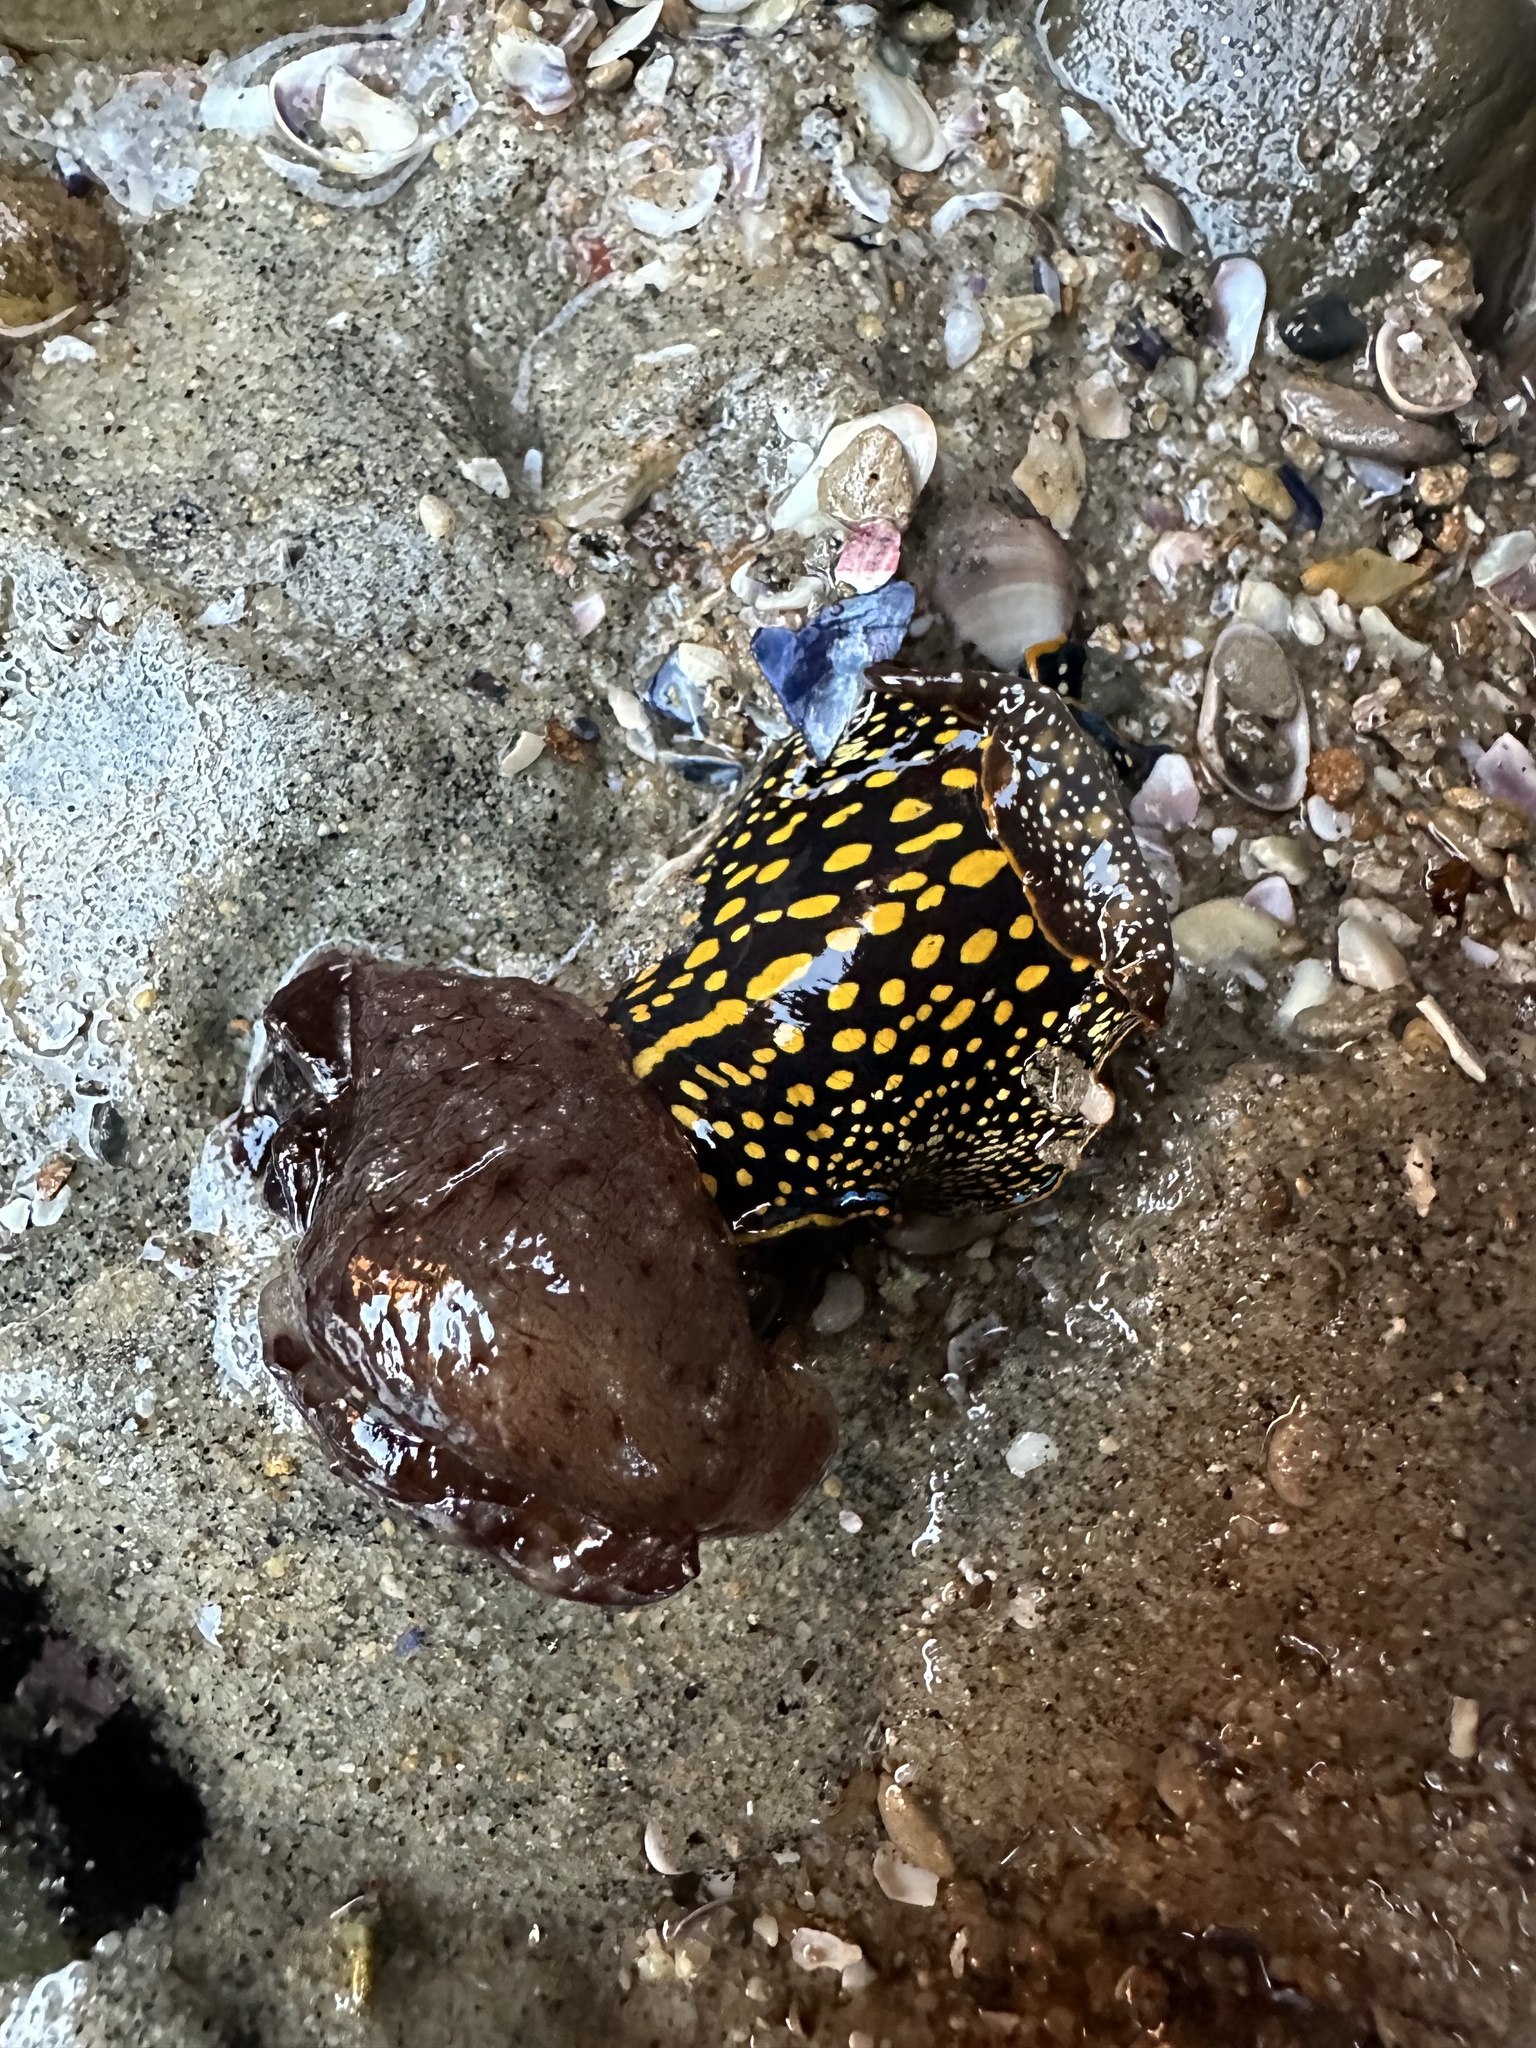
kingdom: Animalia
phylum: Mollusca
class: Gastropoda
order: Cephalaspidea
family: Aglajidae
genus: Navanax
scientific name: Navanax inermis
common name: California aglaja
